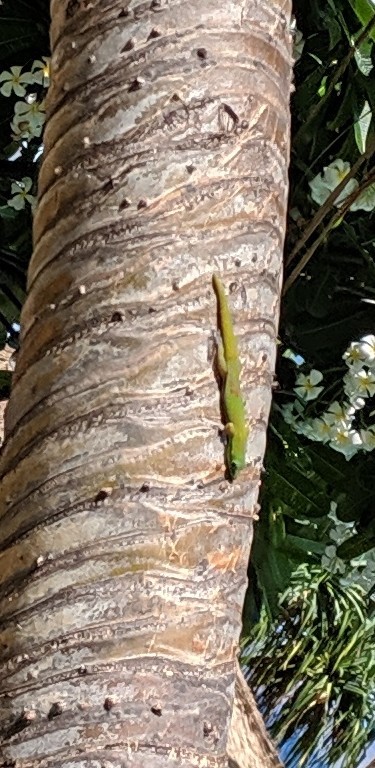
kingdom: Animalia
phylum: Chordata
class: Squamata
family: Gekkonidae
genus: Phelsuma
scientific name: Phelsuma laticauda
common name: Gold dust day gecko
